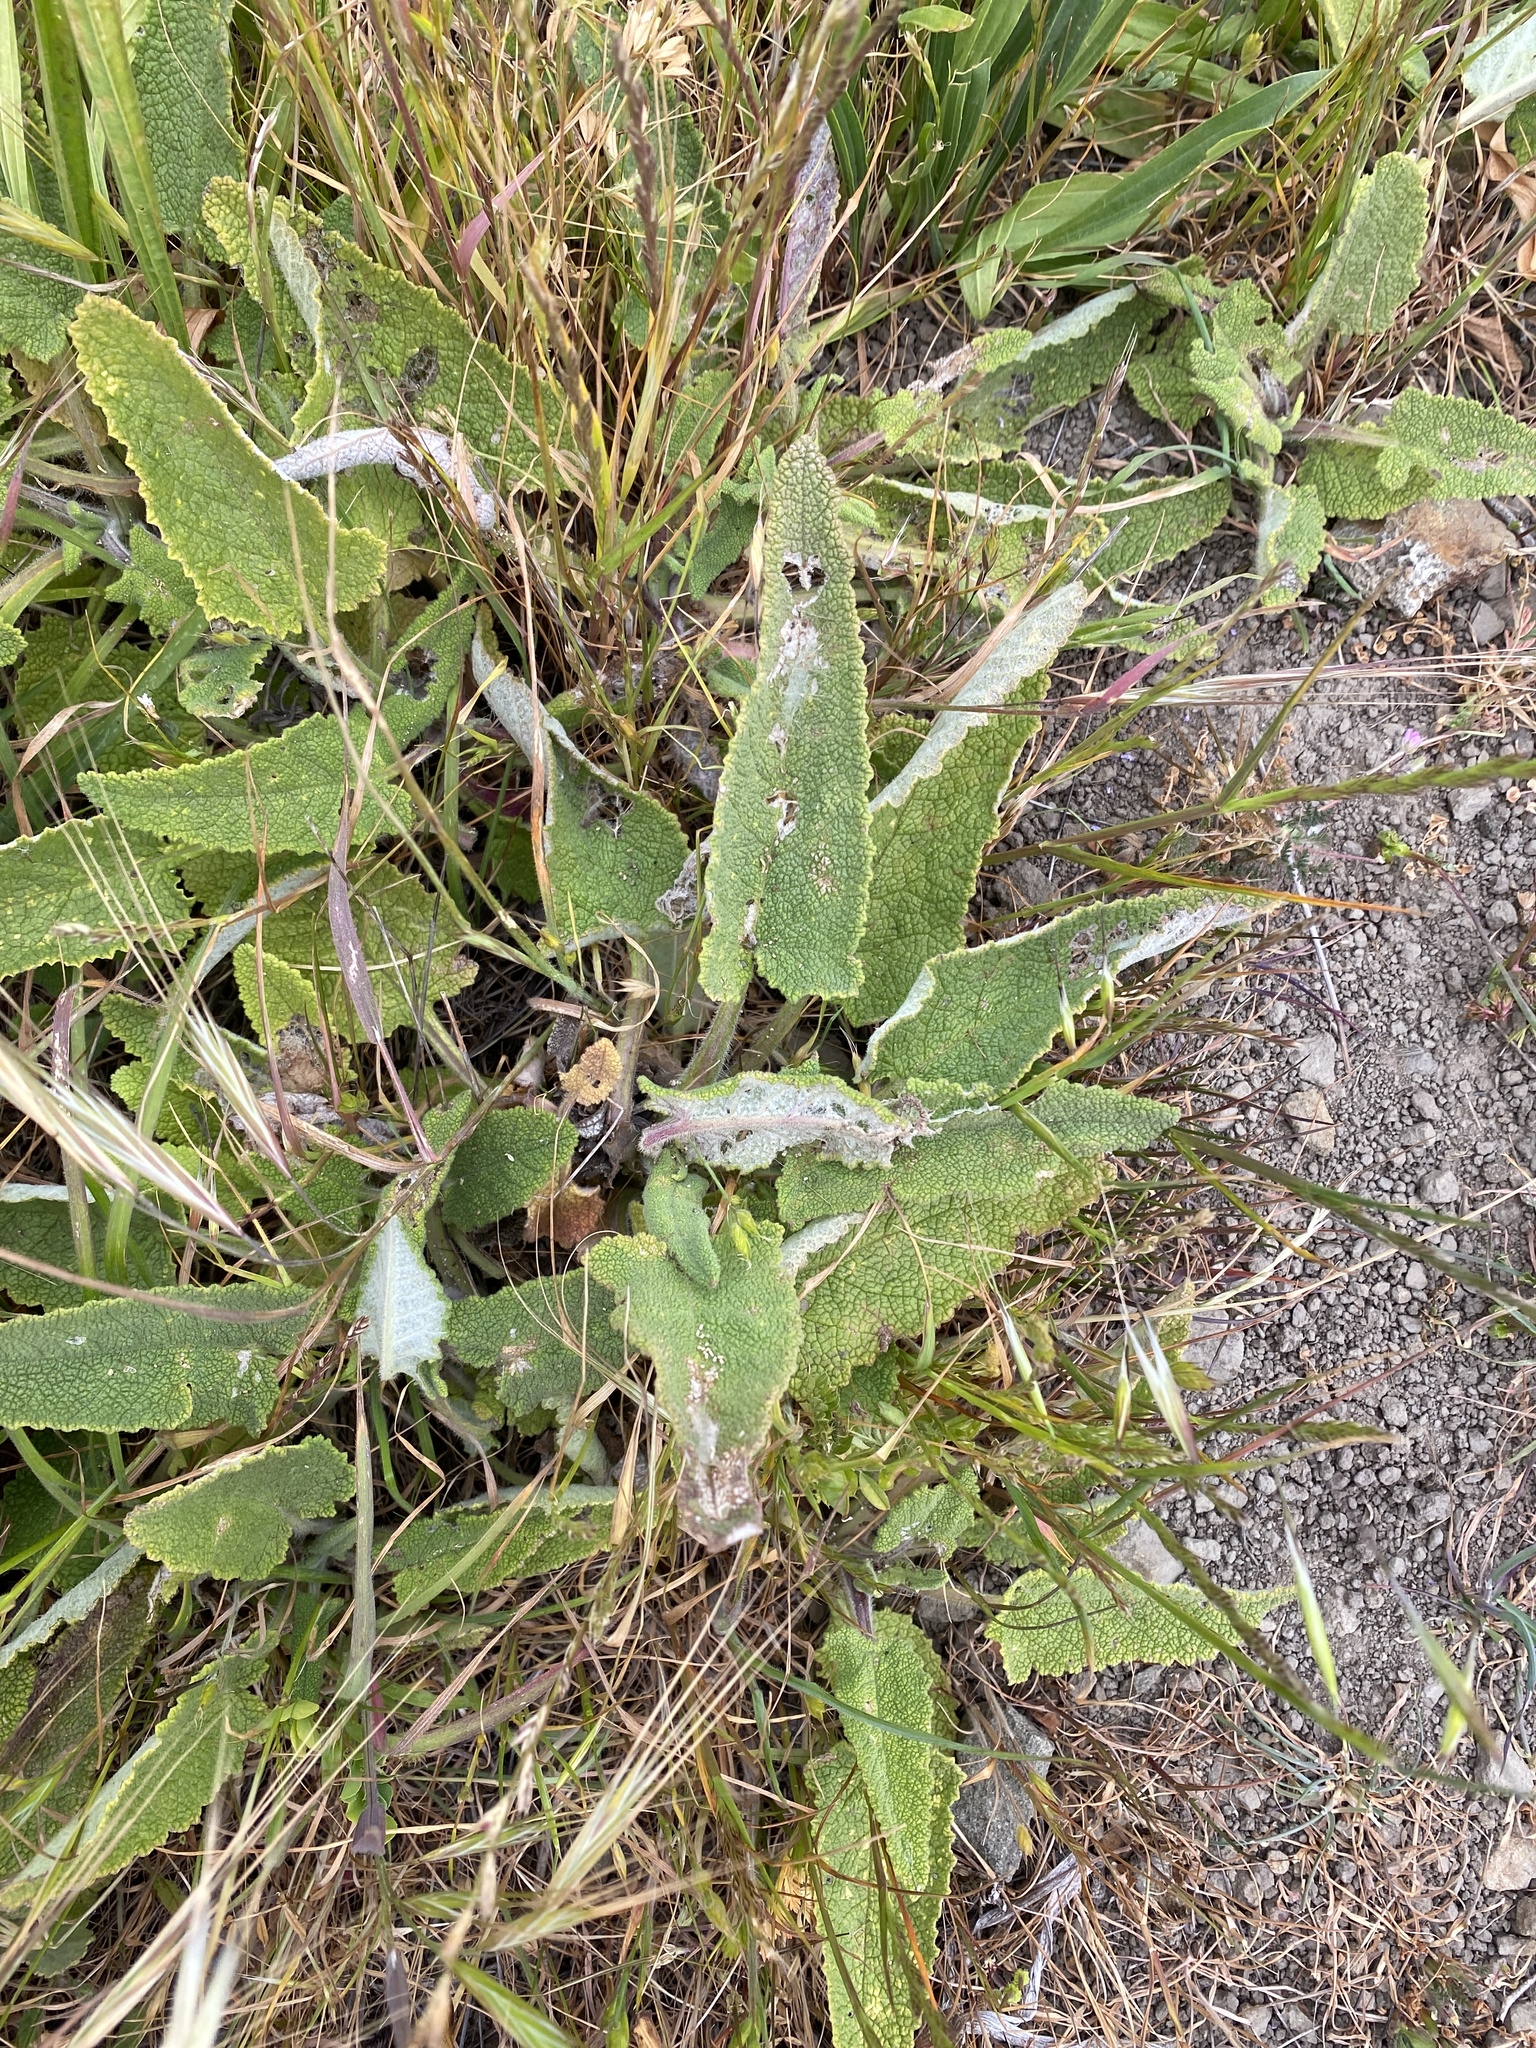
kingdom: Plantae
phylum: Tracheophyta
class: Magnoliopsida
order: Lamiales
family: Lamiaceae
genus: Salvia
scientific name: Salvia spathacea
